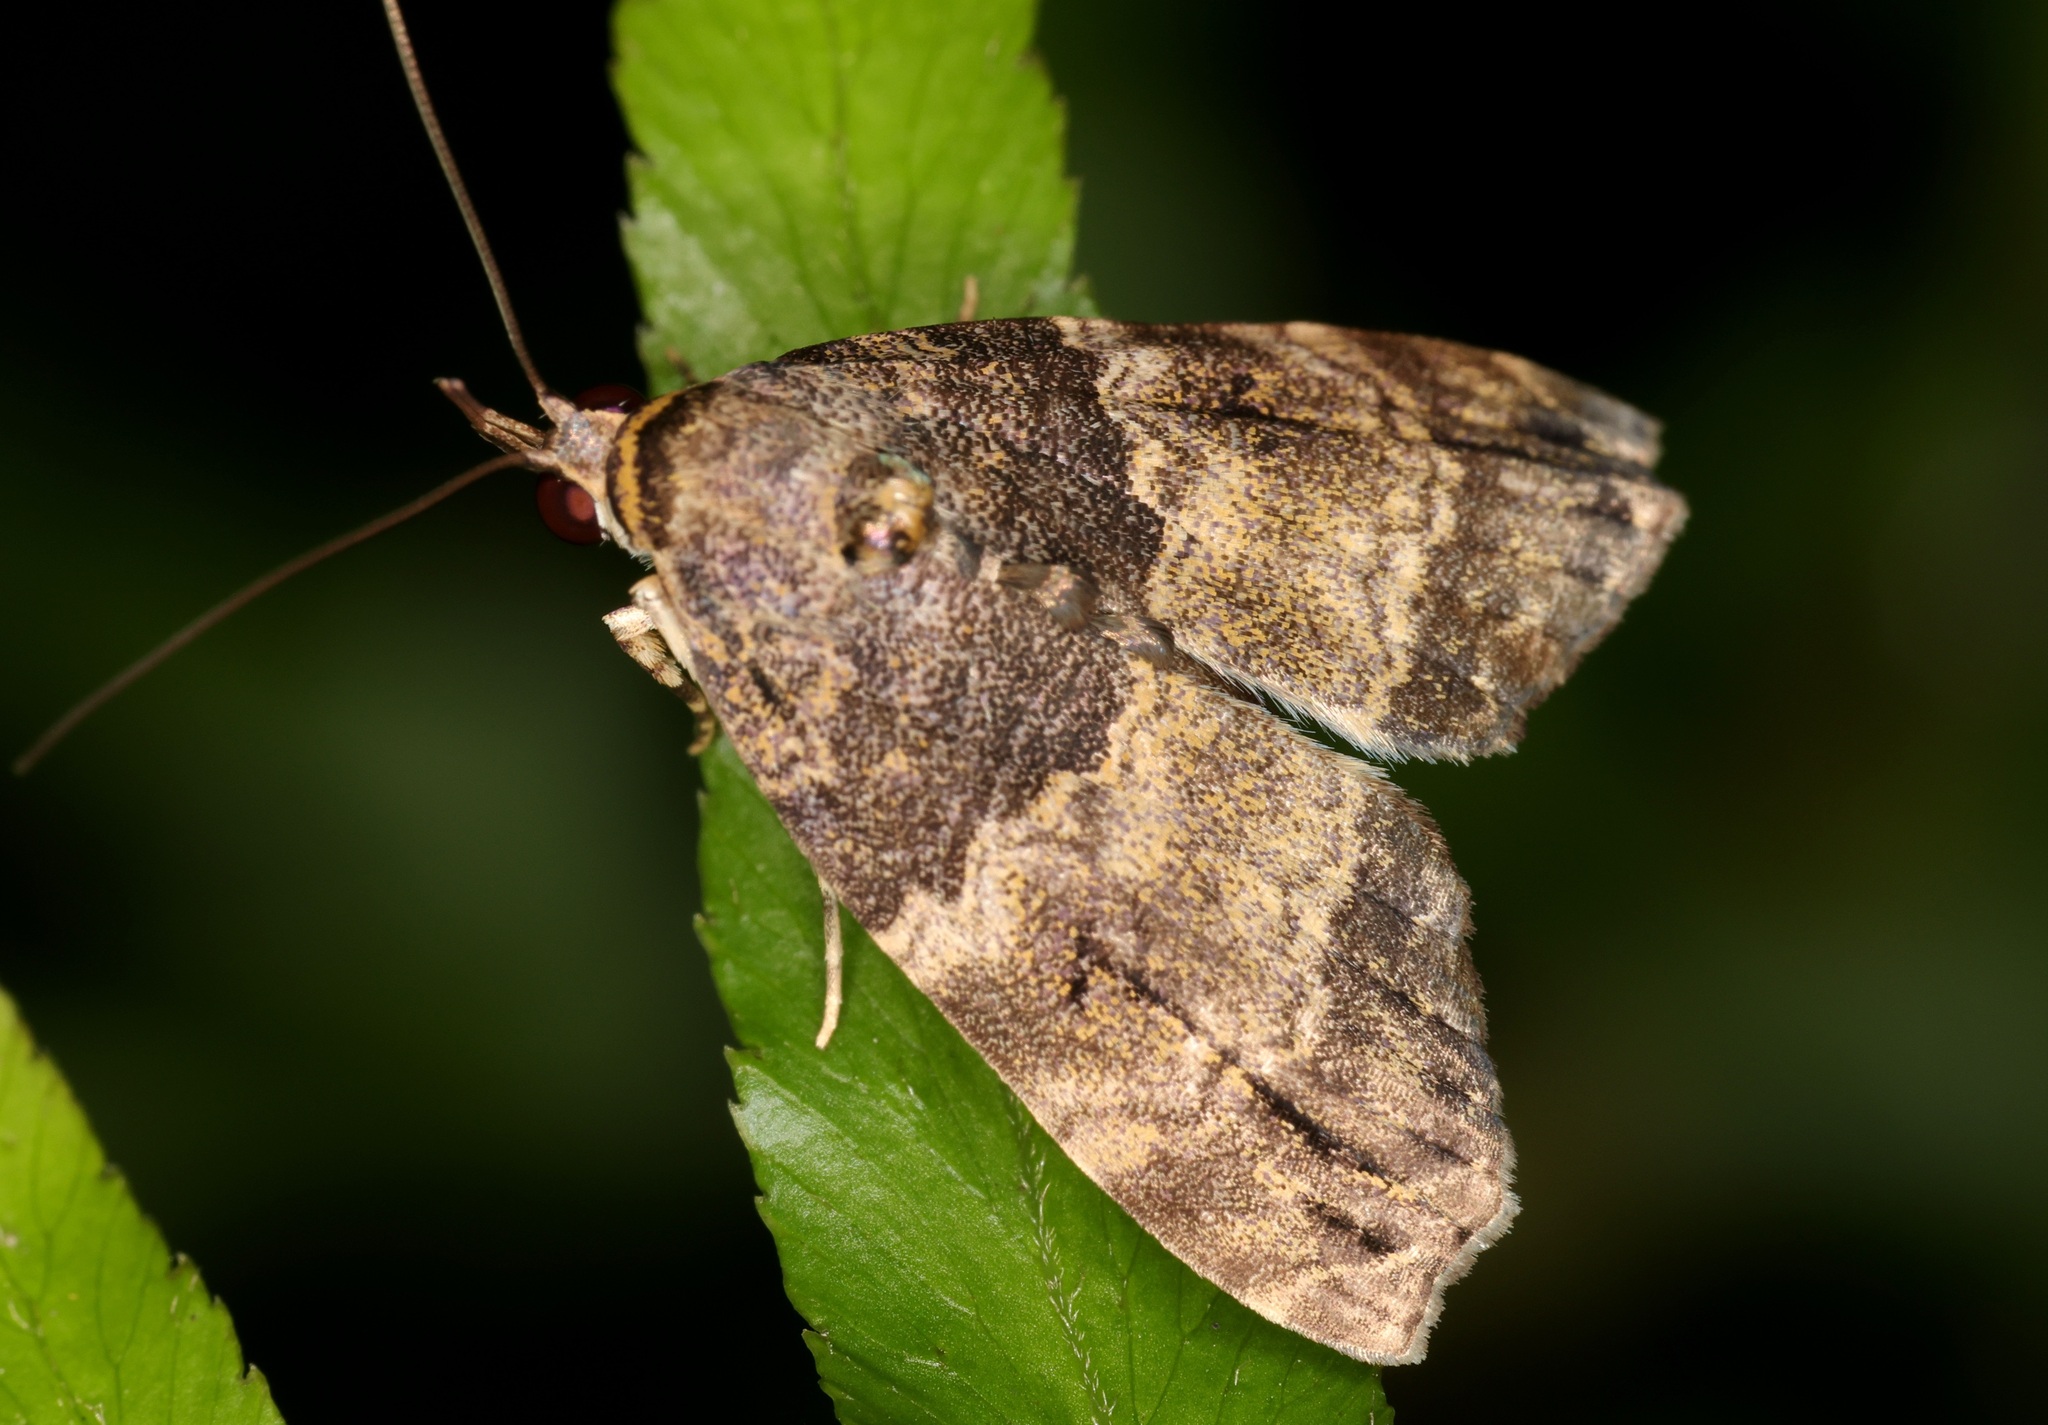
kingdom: Animalia
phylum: Arthropoda
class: Insecta
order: Lepidoptera
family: Nolidae
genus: Labanda
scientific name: Labanda semipars
